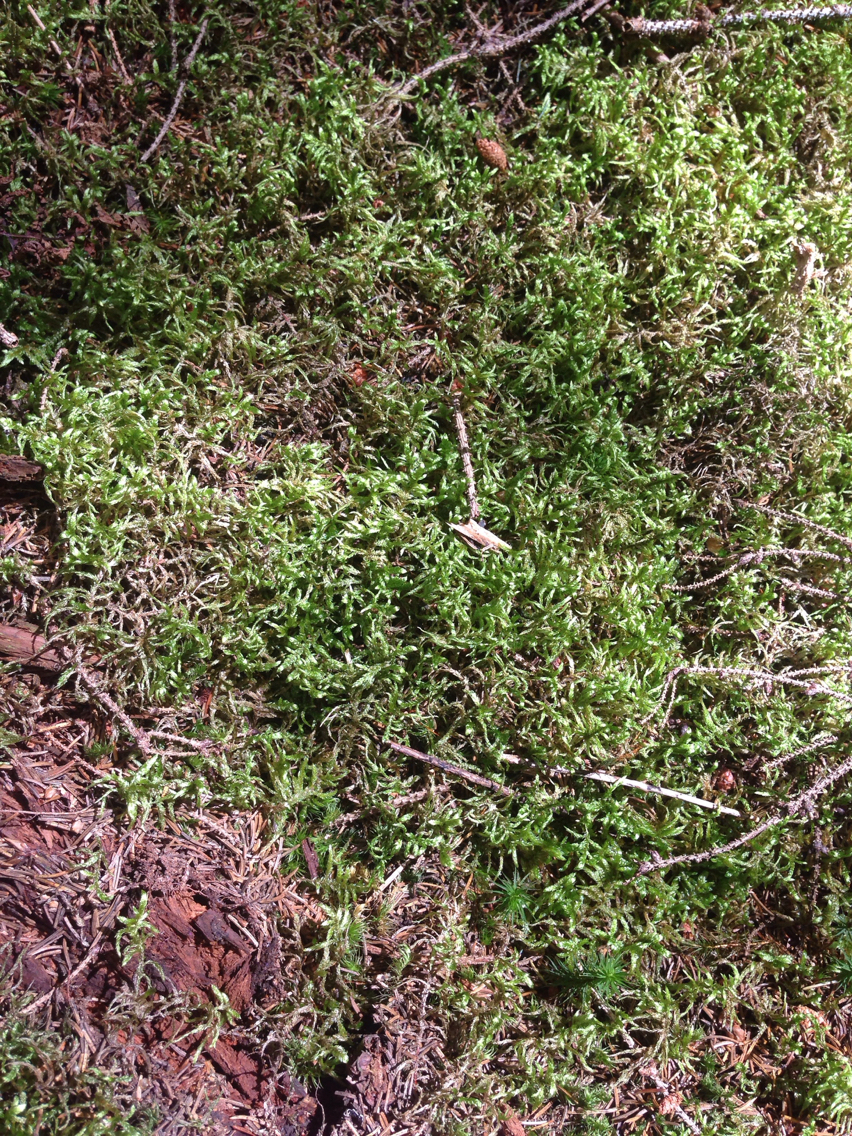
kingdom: Plantae
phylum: Bryophyta
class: Bryopsida
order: Hypnales
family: Hylocomiaceae
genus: Pleurozium
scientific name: Pleurozium schreberi
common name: Red-stemmed feather moss
